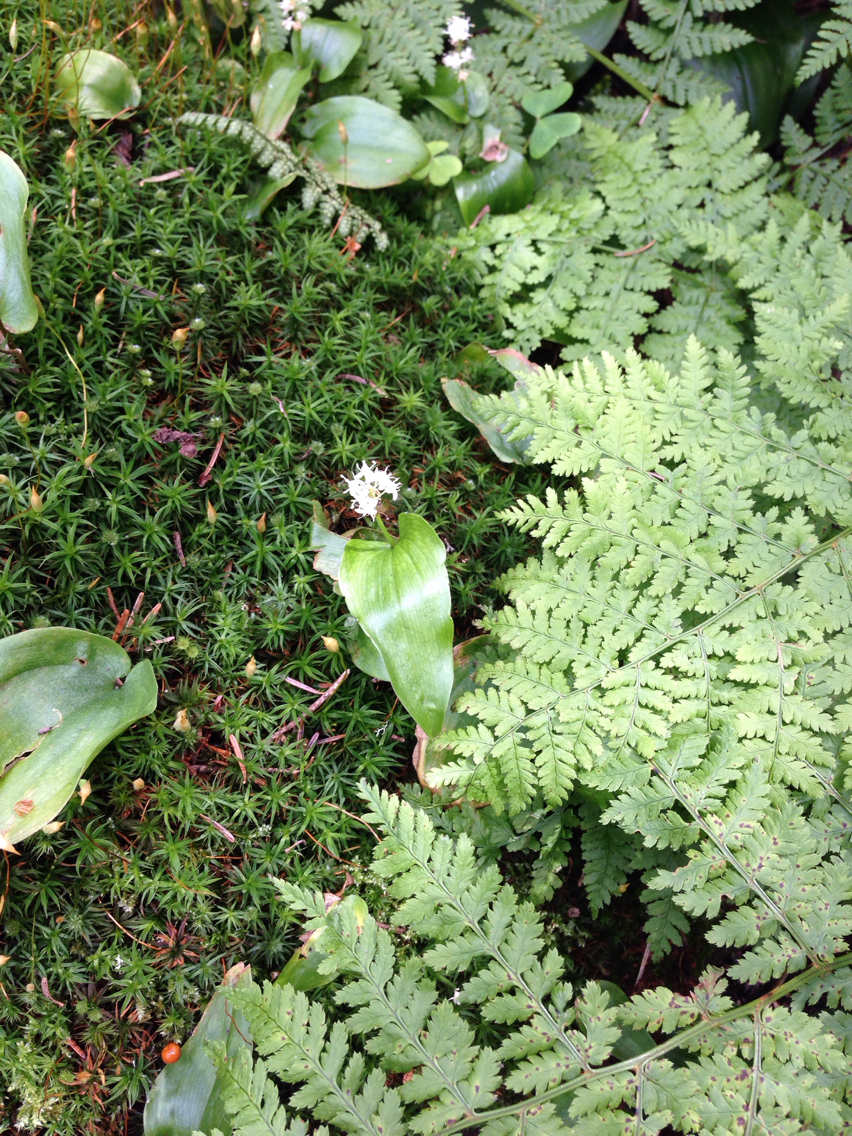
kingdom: Plantae
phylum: Tracheophyta
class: Liliopsida
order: Asparagales
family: Asparagaceae
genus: Maianthemum
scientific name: Maianthemum canadense
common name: False lily-of-the-valley
